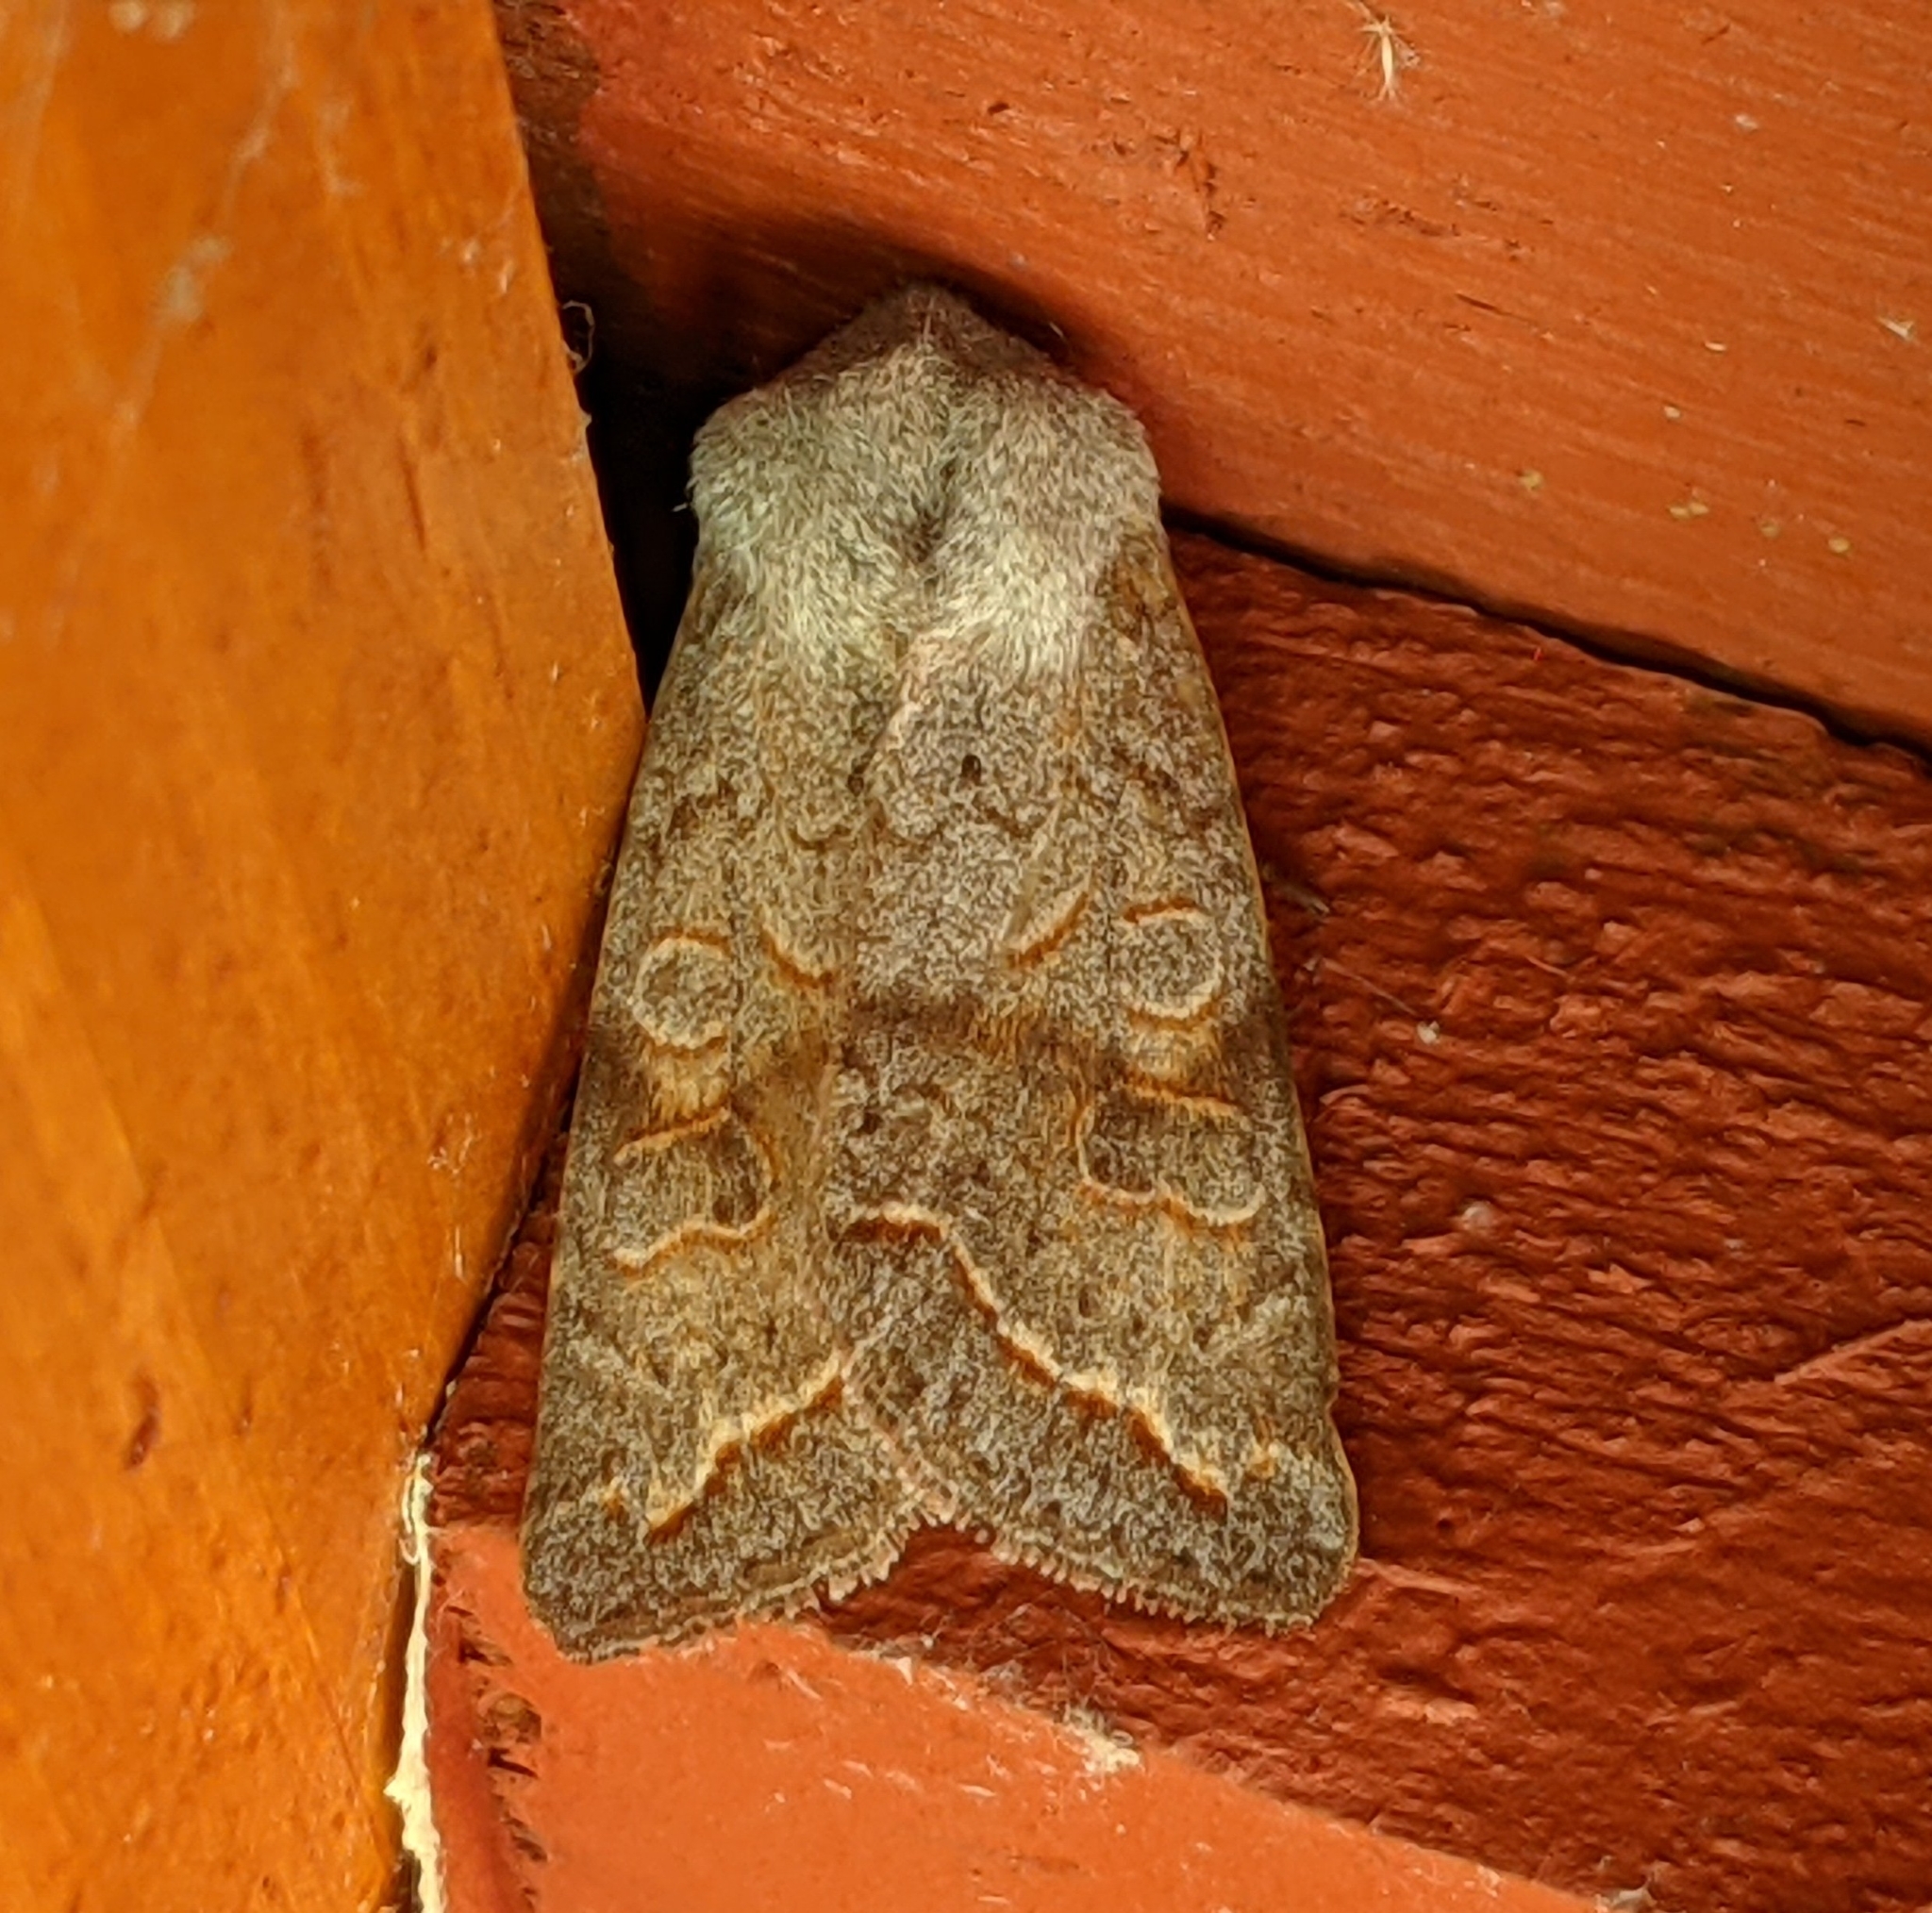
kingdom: Animalia
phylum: Arthropoda
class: Insecta
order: Lepidoptera
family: Noctuidae
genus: Orthosia
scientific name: Orthosia revicta
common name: Rusty whitesided caterpillar
